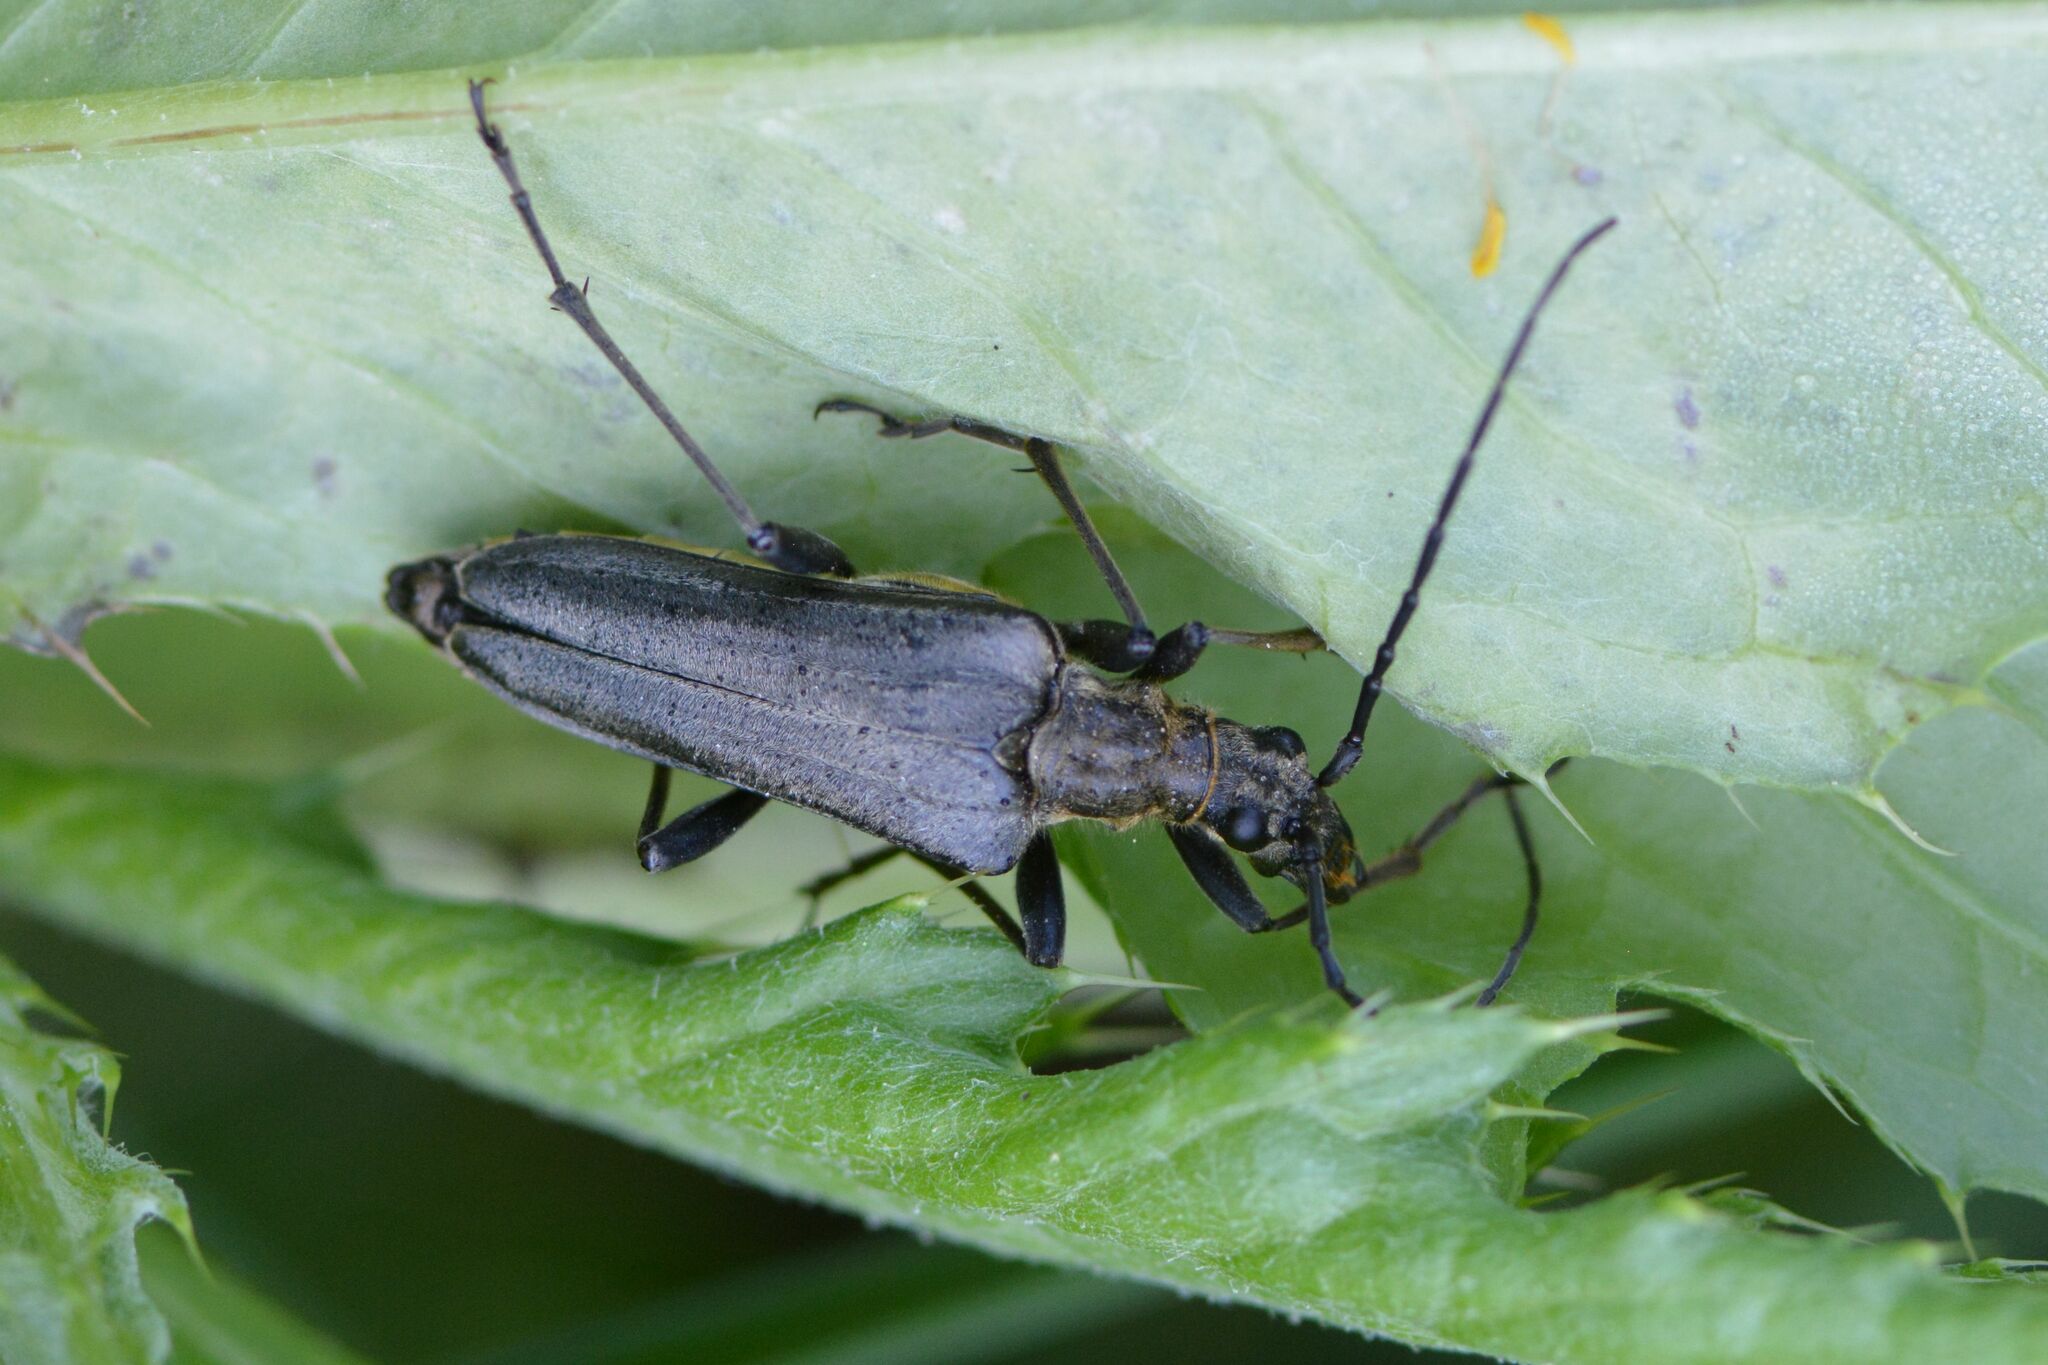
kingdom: Animalia
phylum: Arthropoda
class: Insecta
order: Coleoptera
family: Cerambycidae
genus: Stenocorus
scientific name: Stenocorus meridianus
